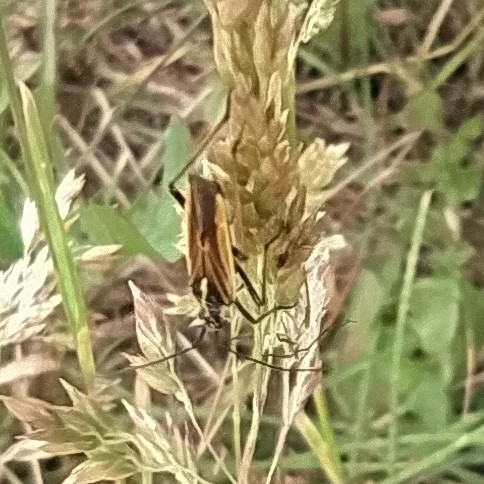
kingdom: Animalia
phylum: Arthropoda
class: Insecta
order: Hemiptera
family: Miridae
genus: Leptopterna
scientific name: Leptopterna dolabrata
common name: Meadow plant bug
